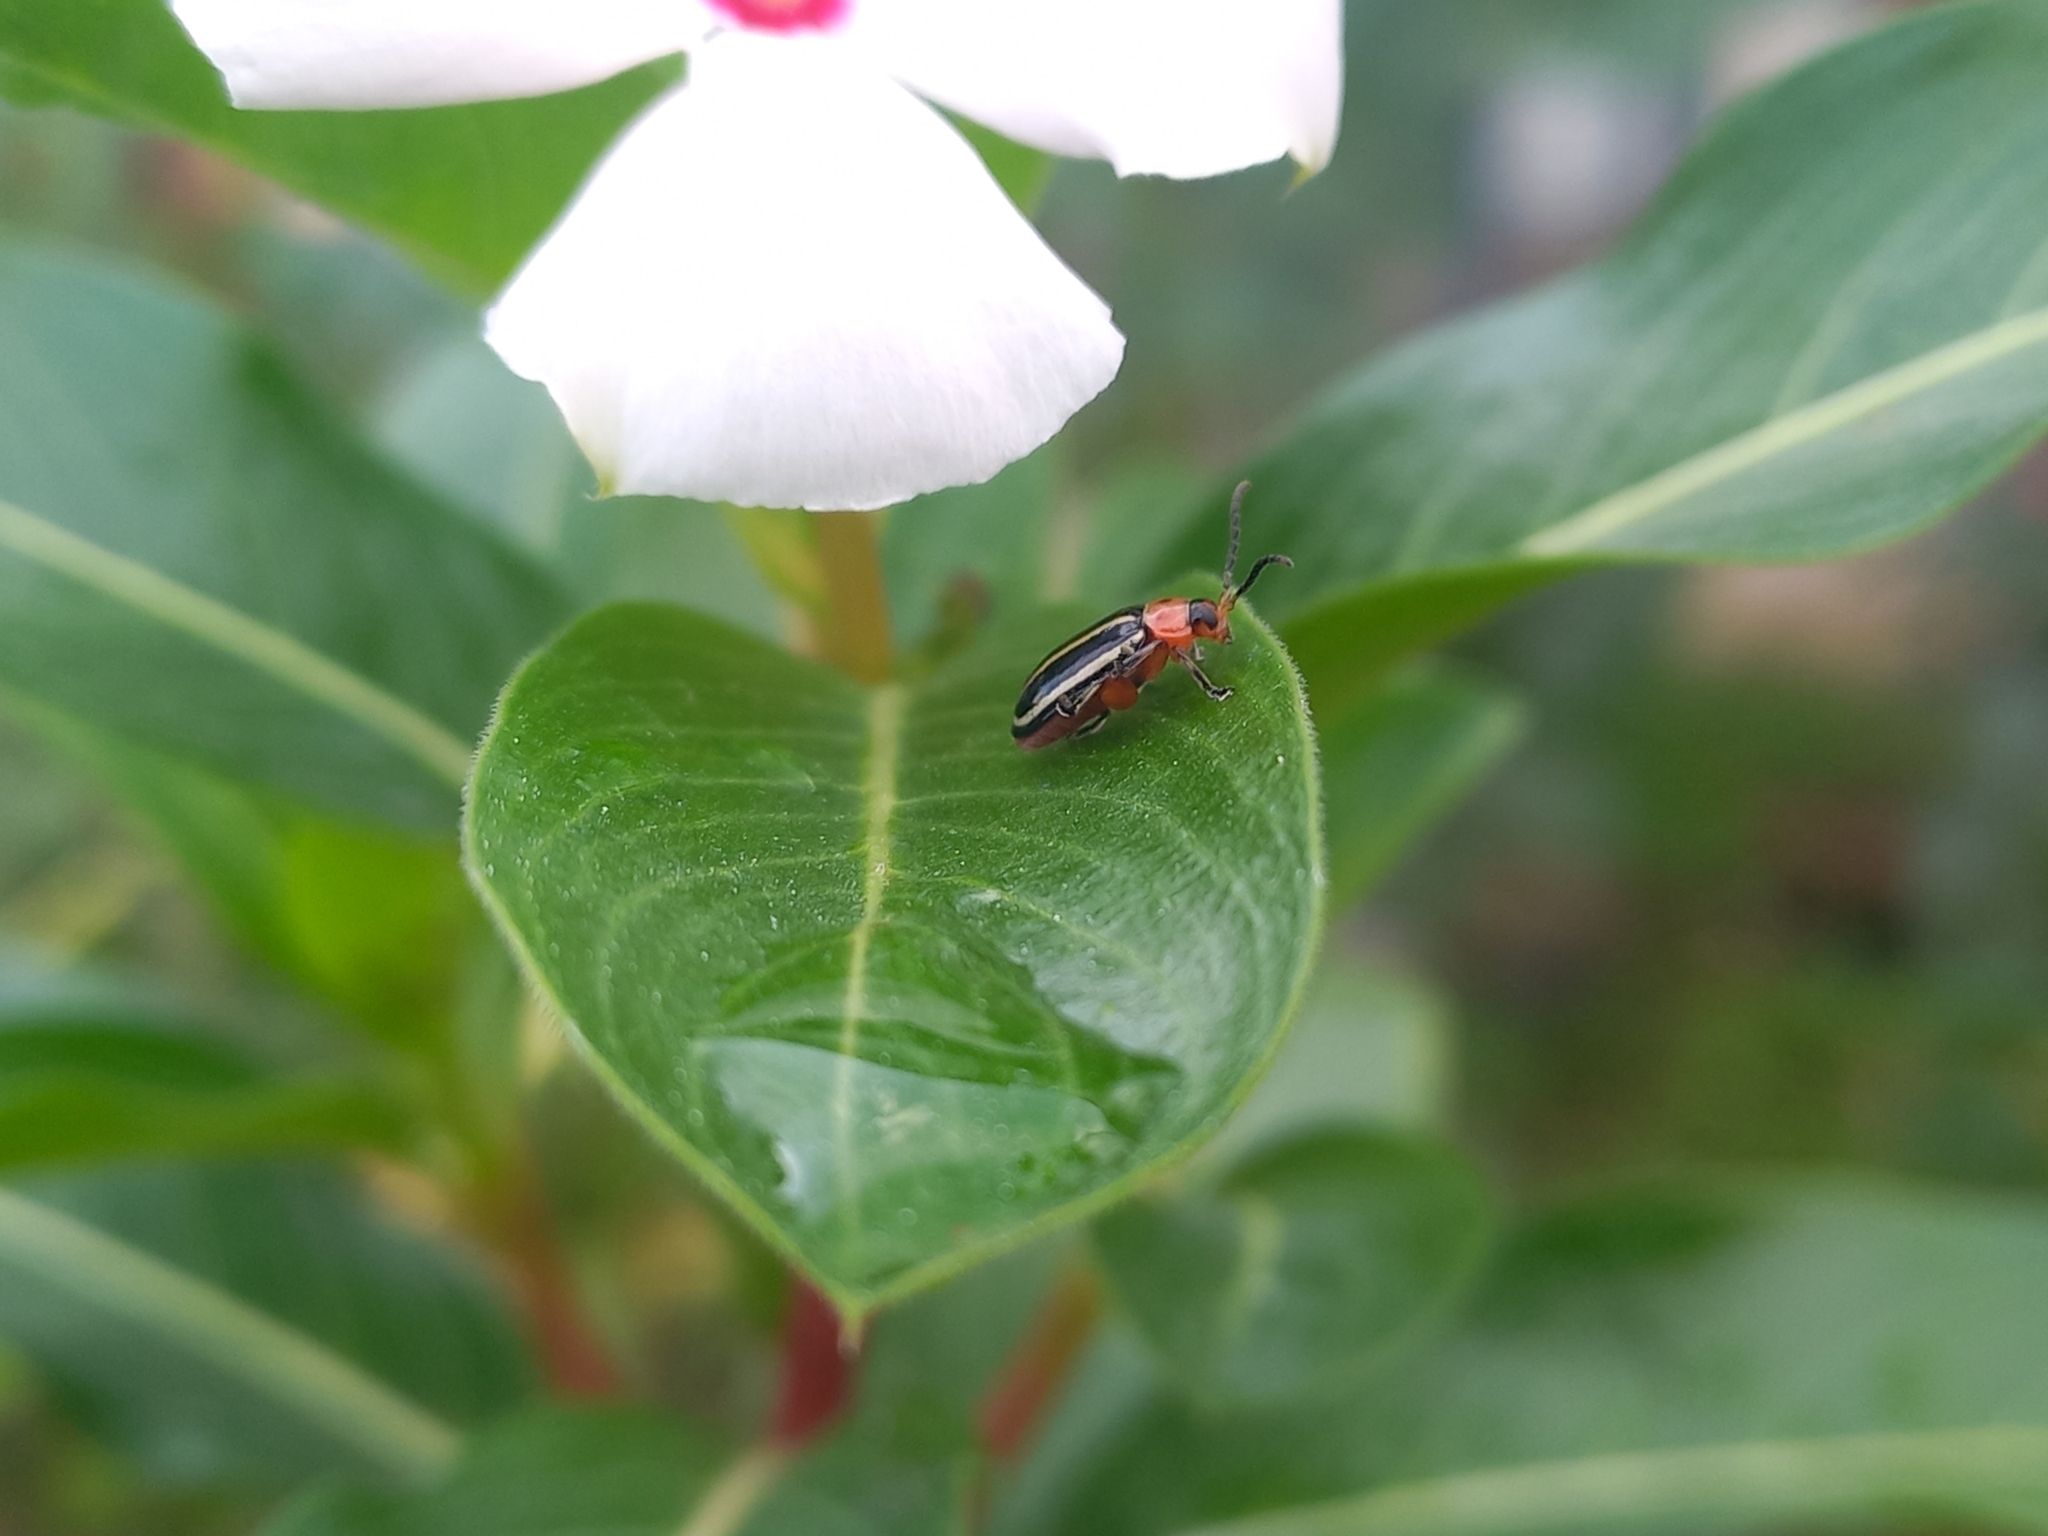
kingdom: Animalia
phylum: Arthropoda
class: Insecta
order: Coleoptera
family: Chrysomelidae
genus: Disonycha
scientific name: Disonycha glabrata
